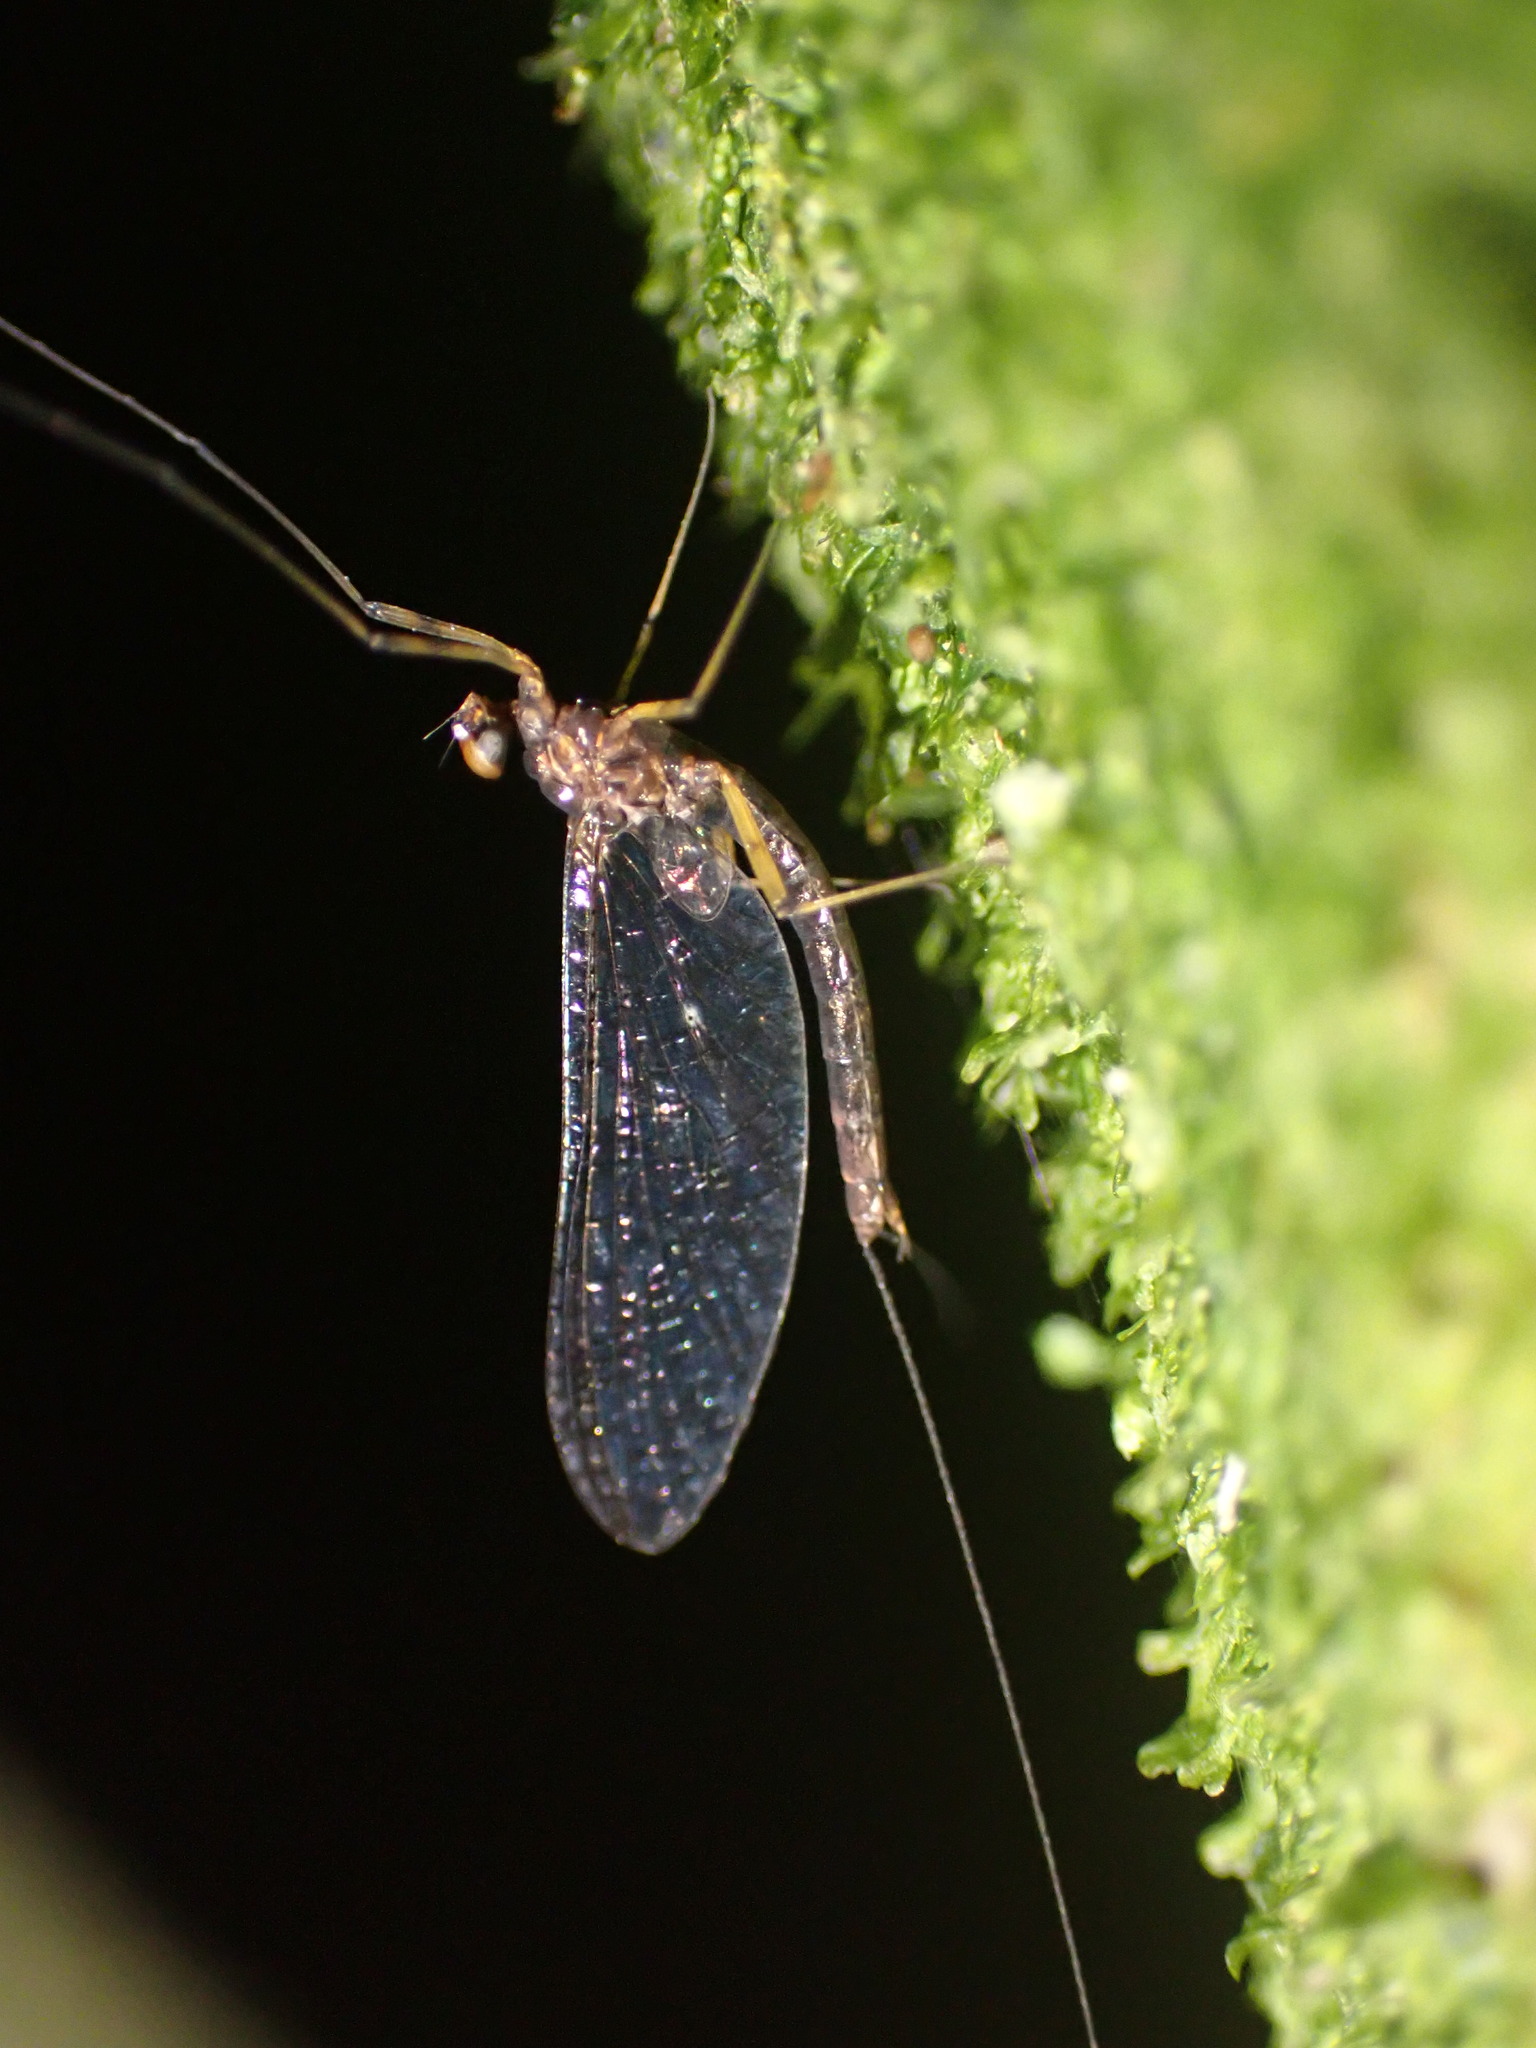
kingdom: Animalia
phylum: Arthropoda
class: Insecta
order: Ephemeroptera
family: Leptophlebiidae
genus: Neozephlebia
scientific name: Neozephlebia scita
